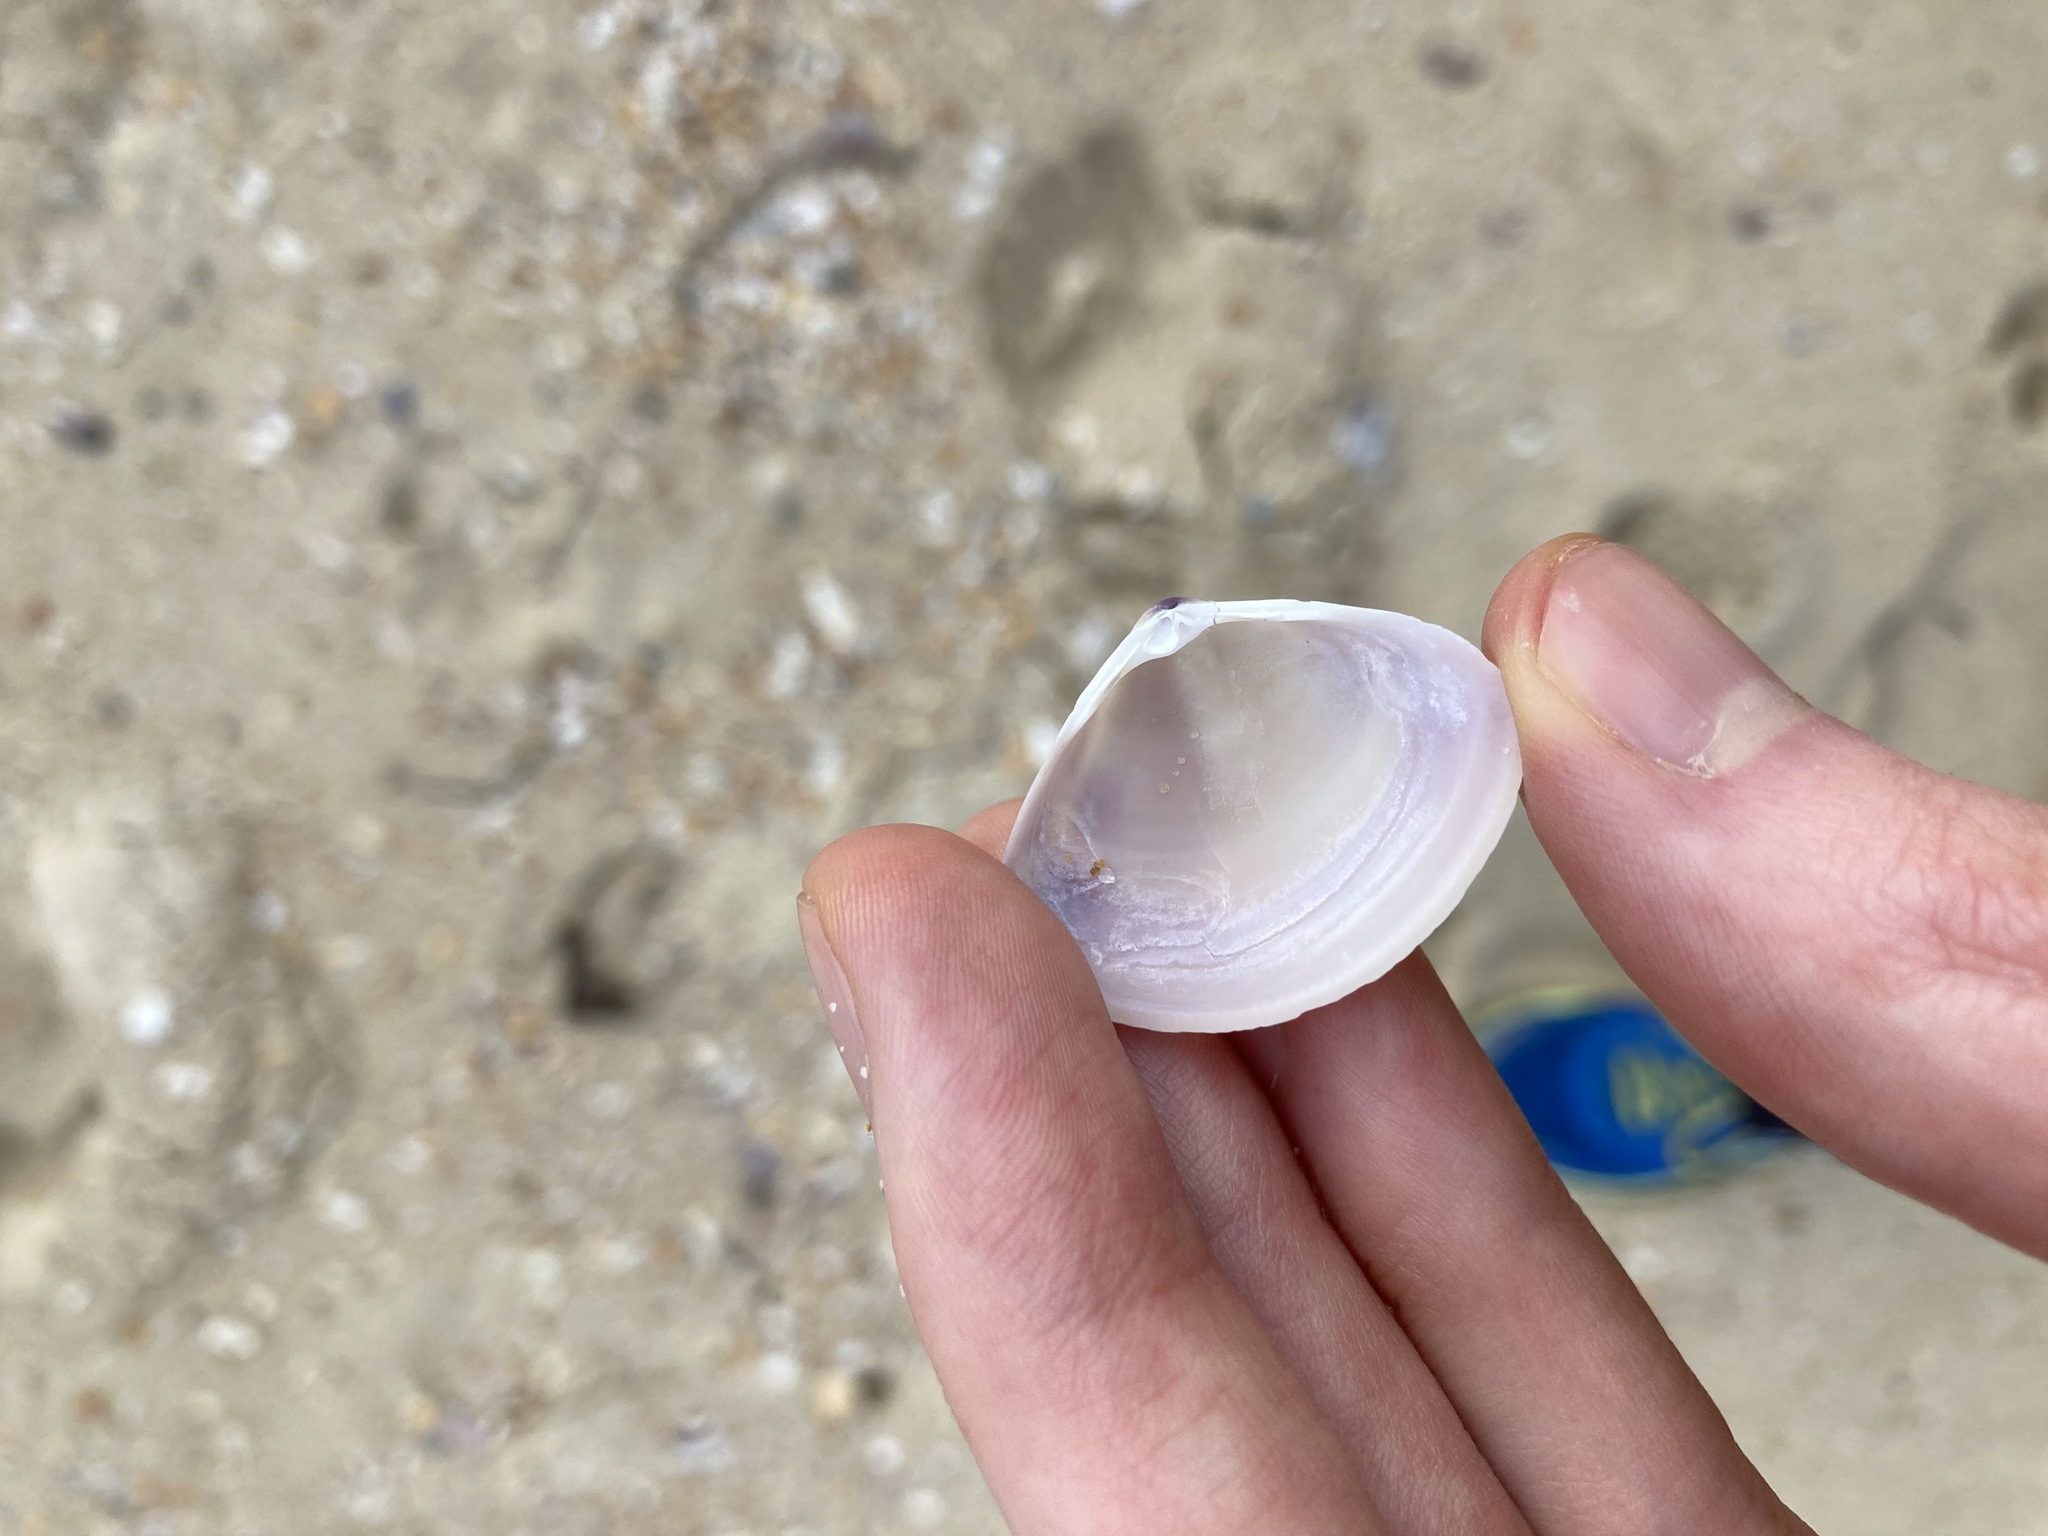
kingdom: Animalia
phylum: Mollusca
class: Bivalvia
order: Venerida
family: Mactridae
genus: Austromactra
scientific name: Austromactra contraria
